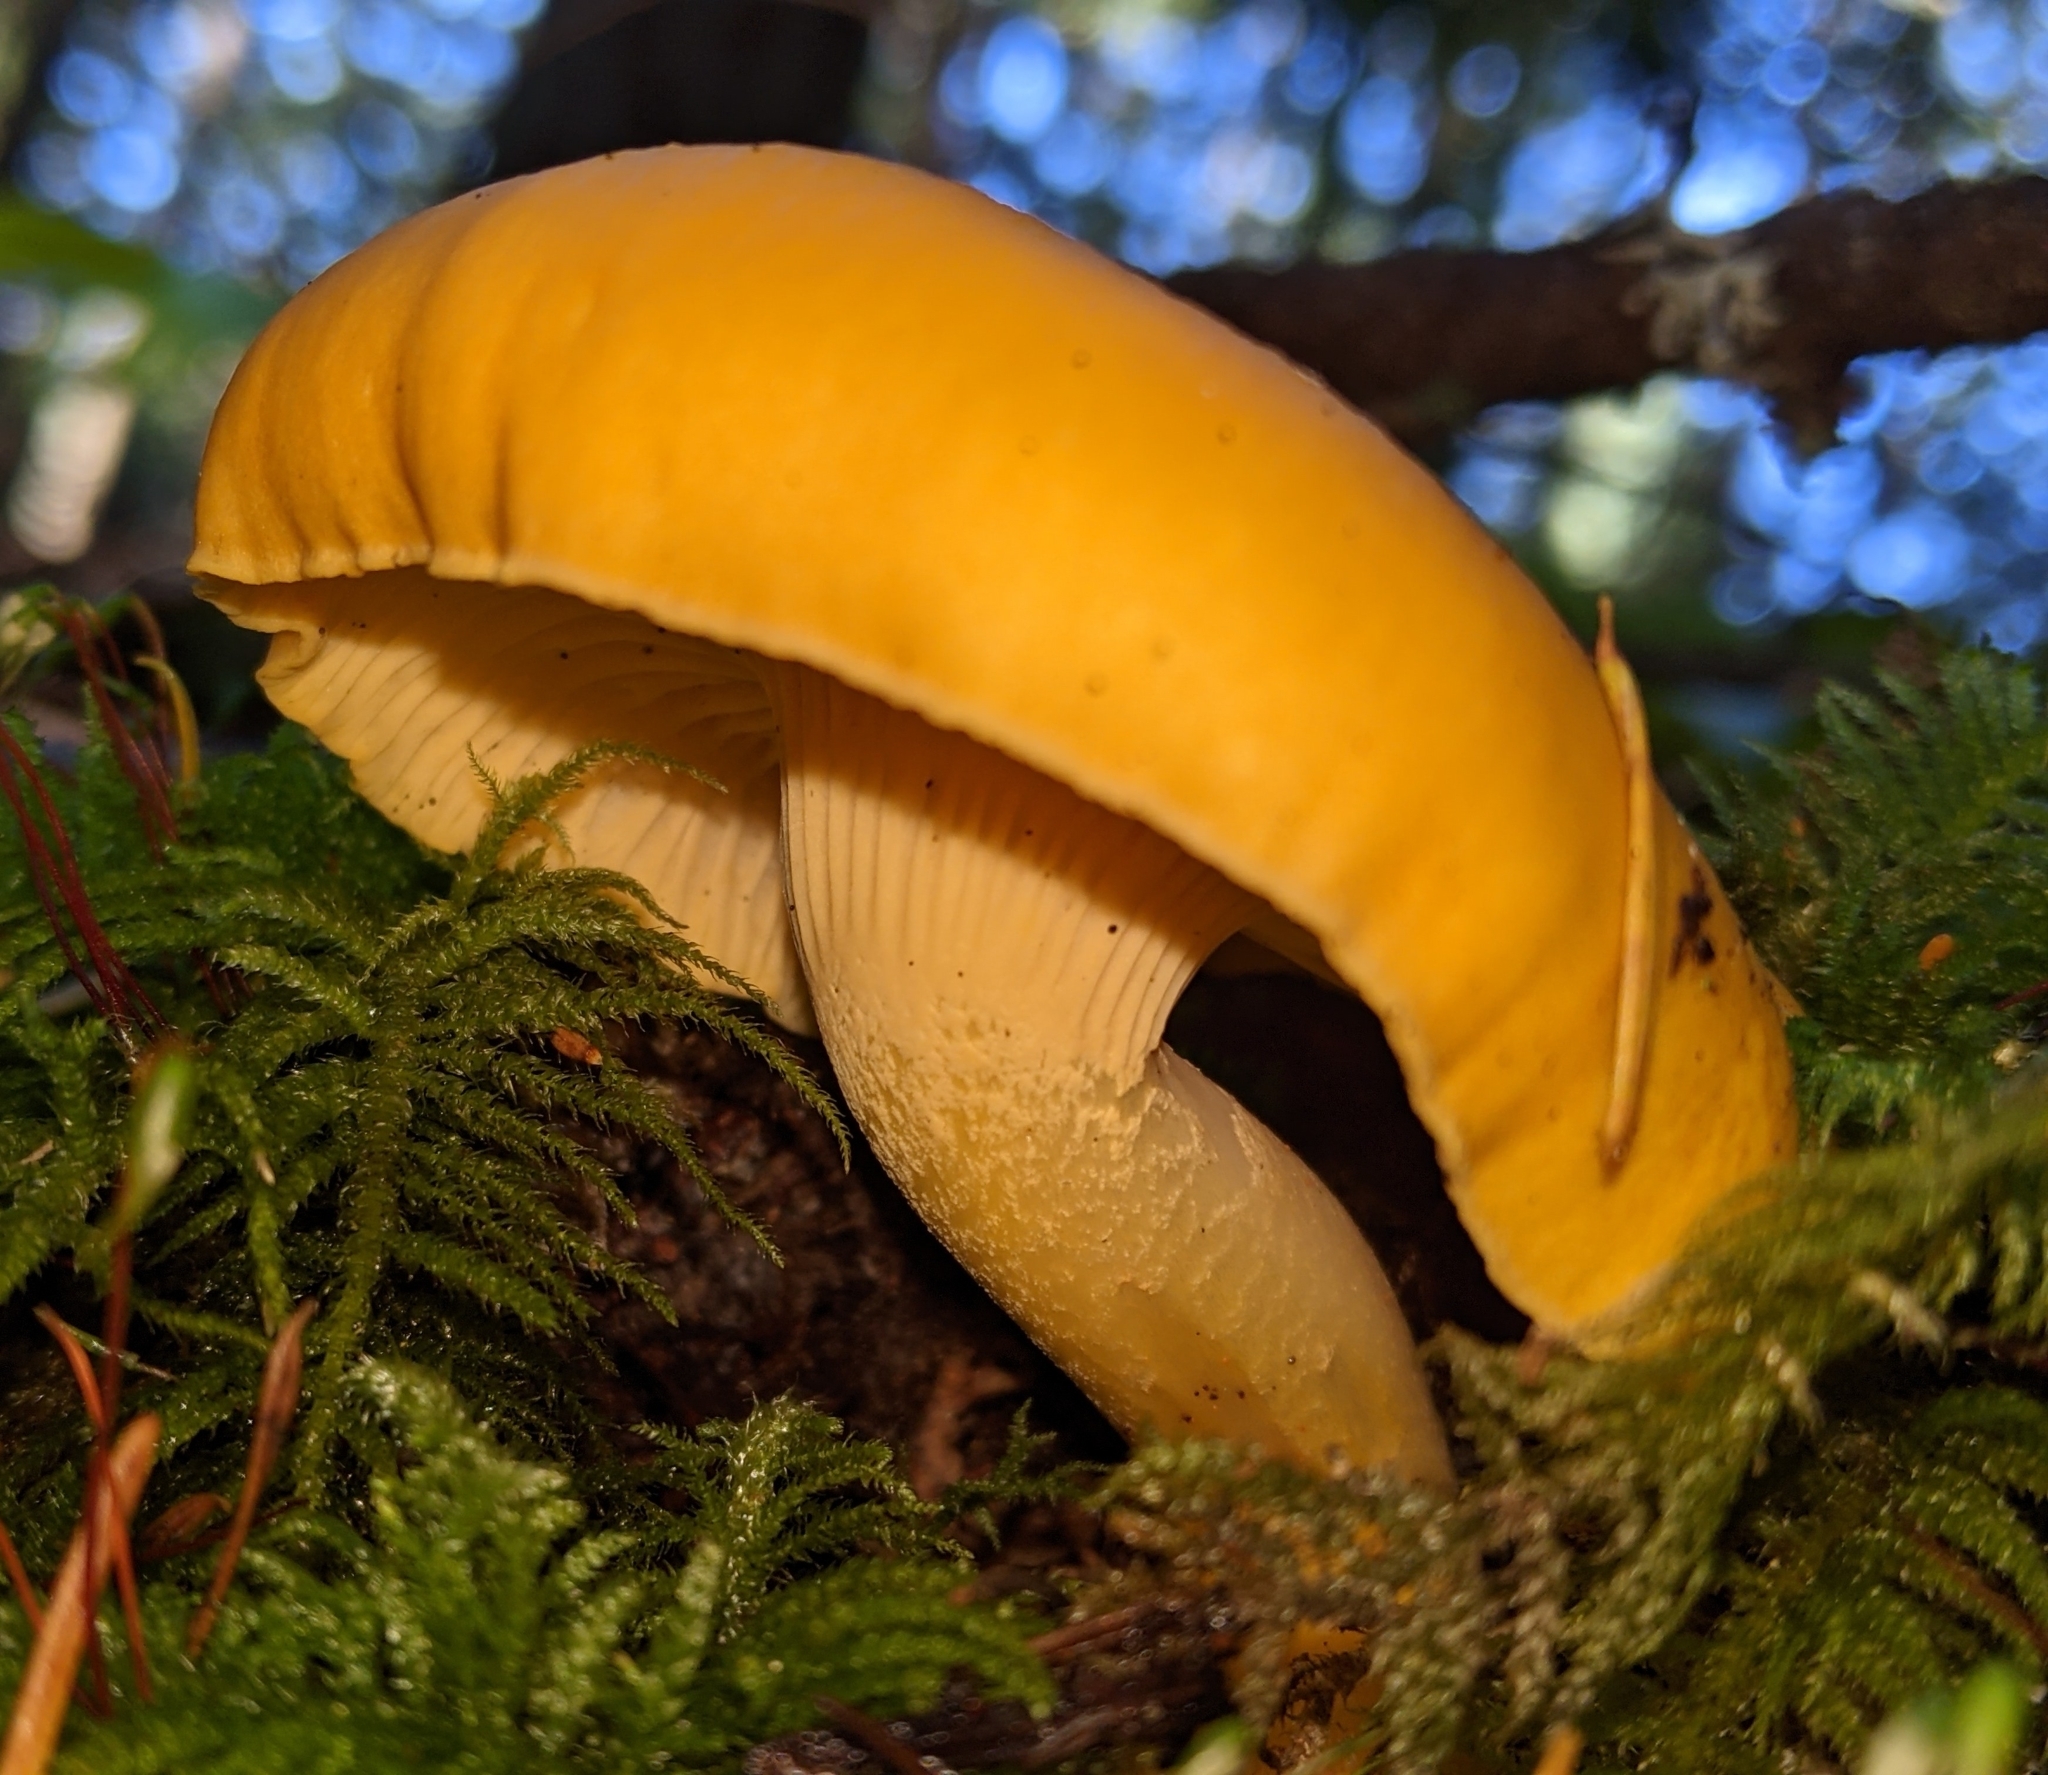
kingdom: Fungi
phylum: Basidiomycota
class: Agaricomycetes
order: Cantharellales
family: Hydnaceae
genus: Cantharellus
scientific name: Cantharellus formosus
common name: Pacific golden chanterelle
